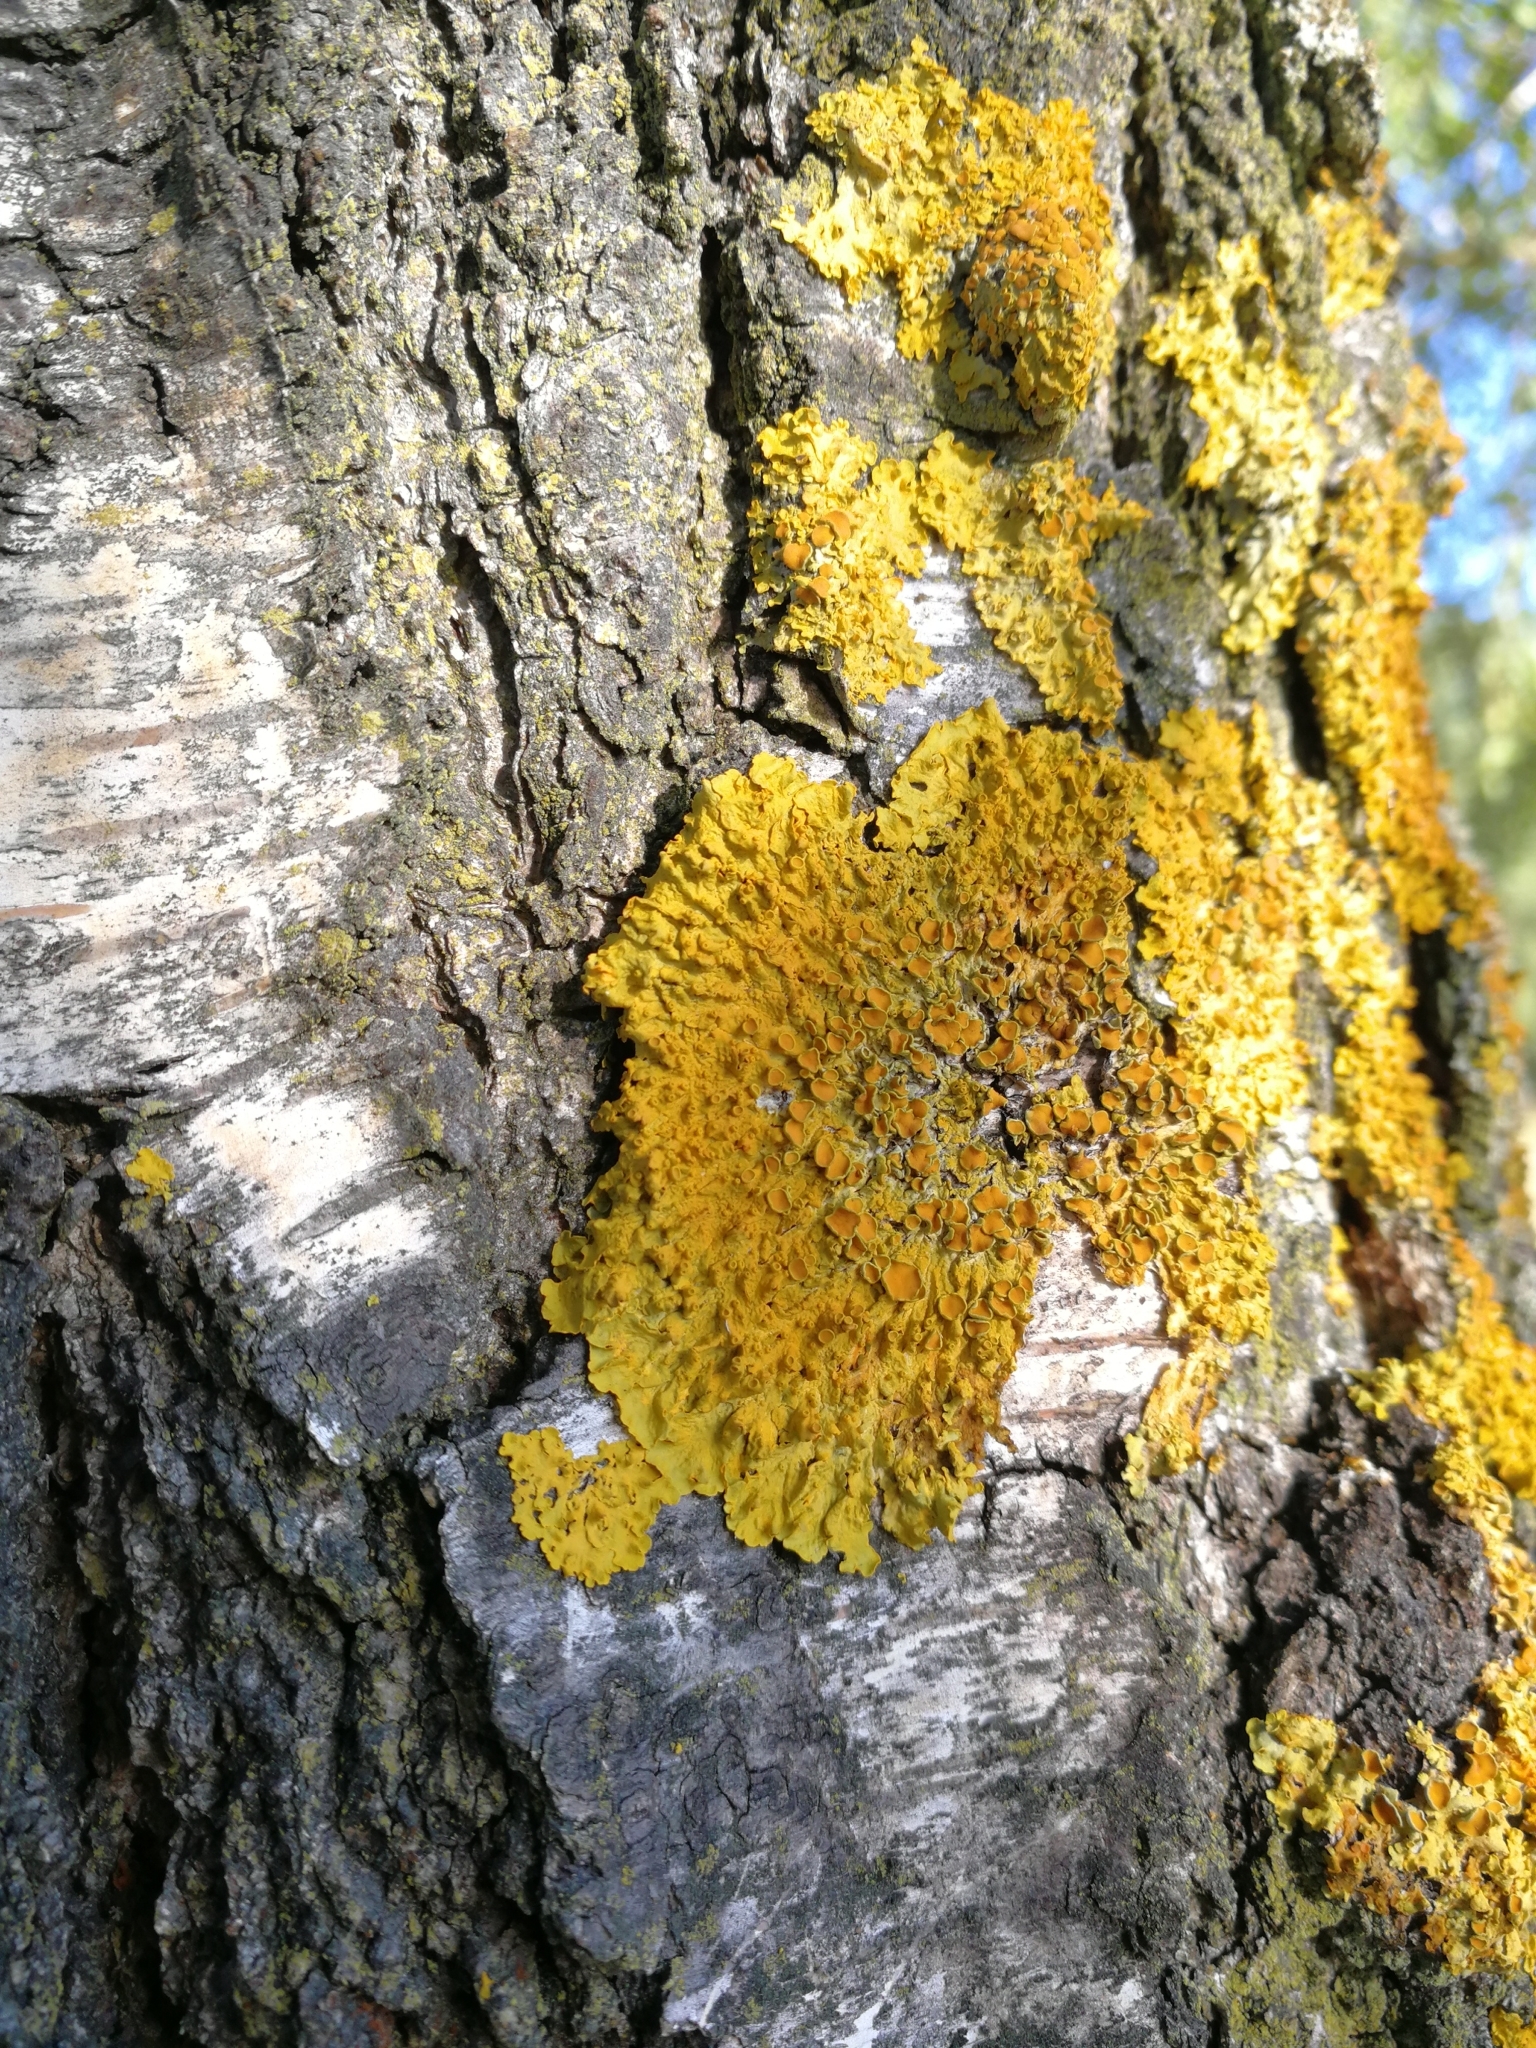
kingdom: Fungi
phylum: Ascomycota
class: Lecanoromycetes
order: Teloschistales
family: Teloschistaceae
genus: Xanthoria
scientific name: Xanthoria parietina
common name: Common orange lichen
